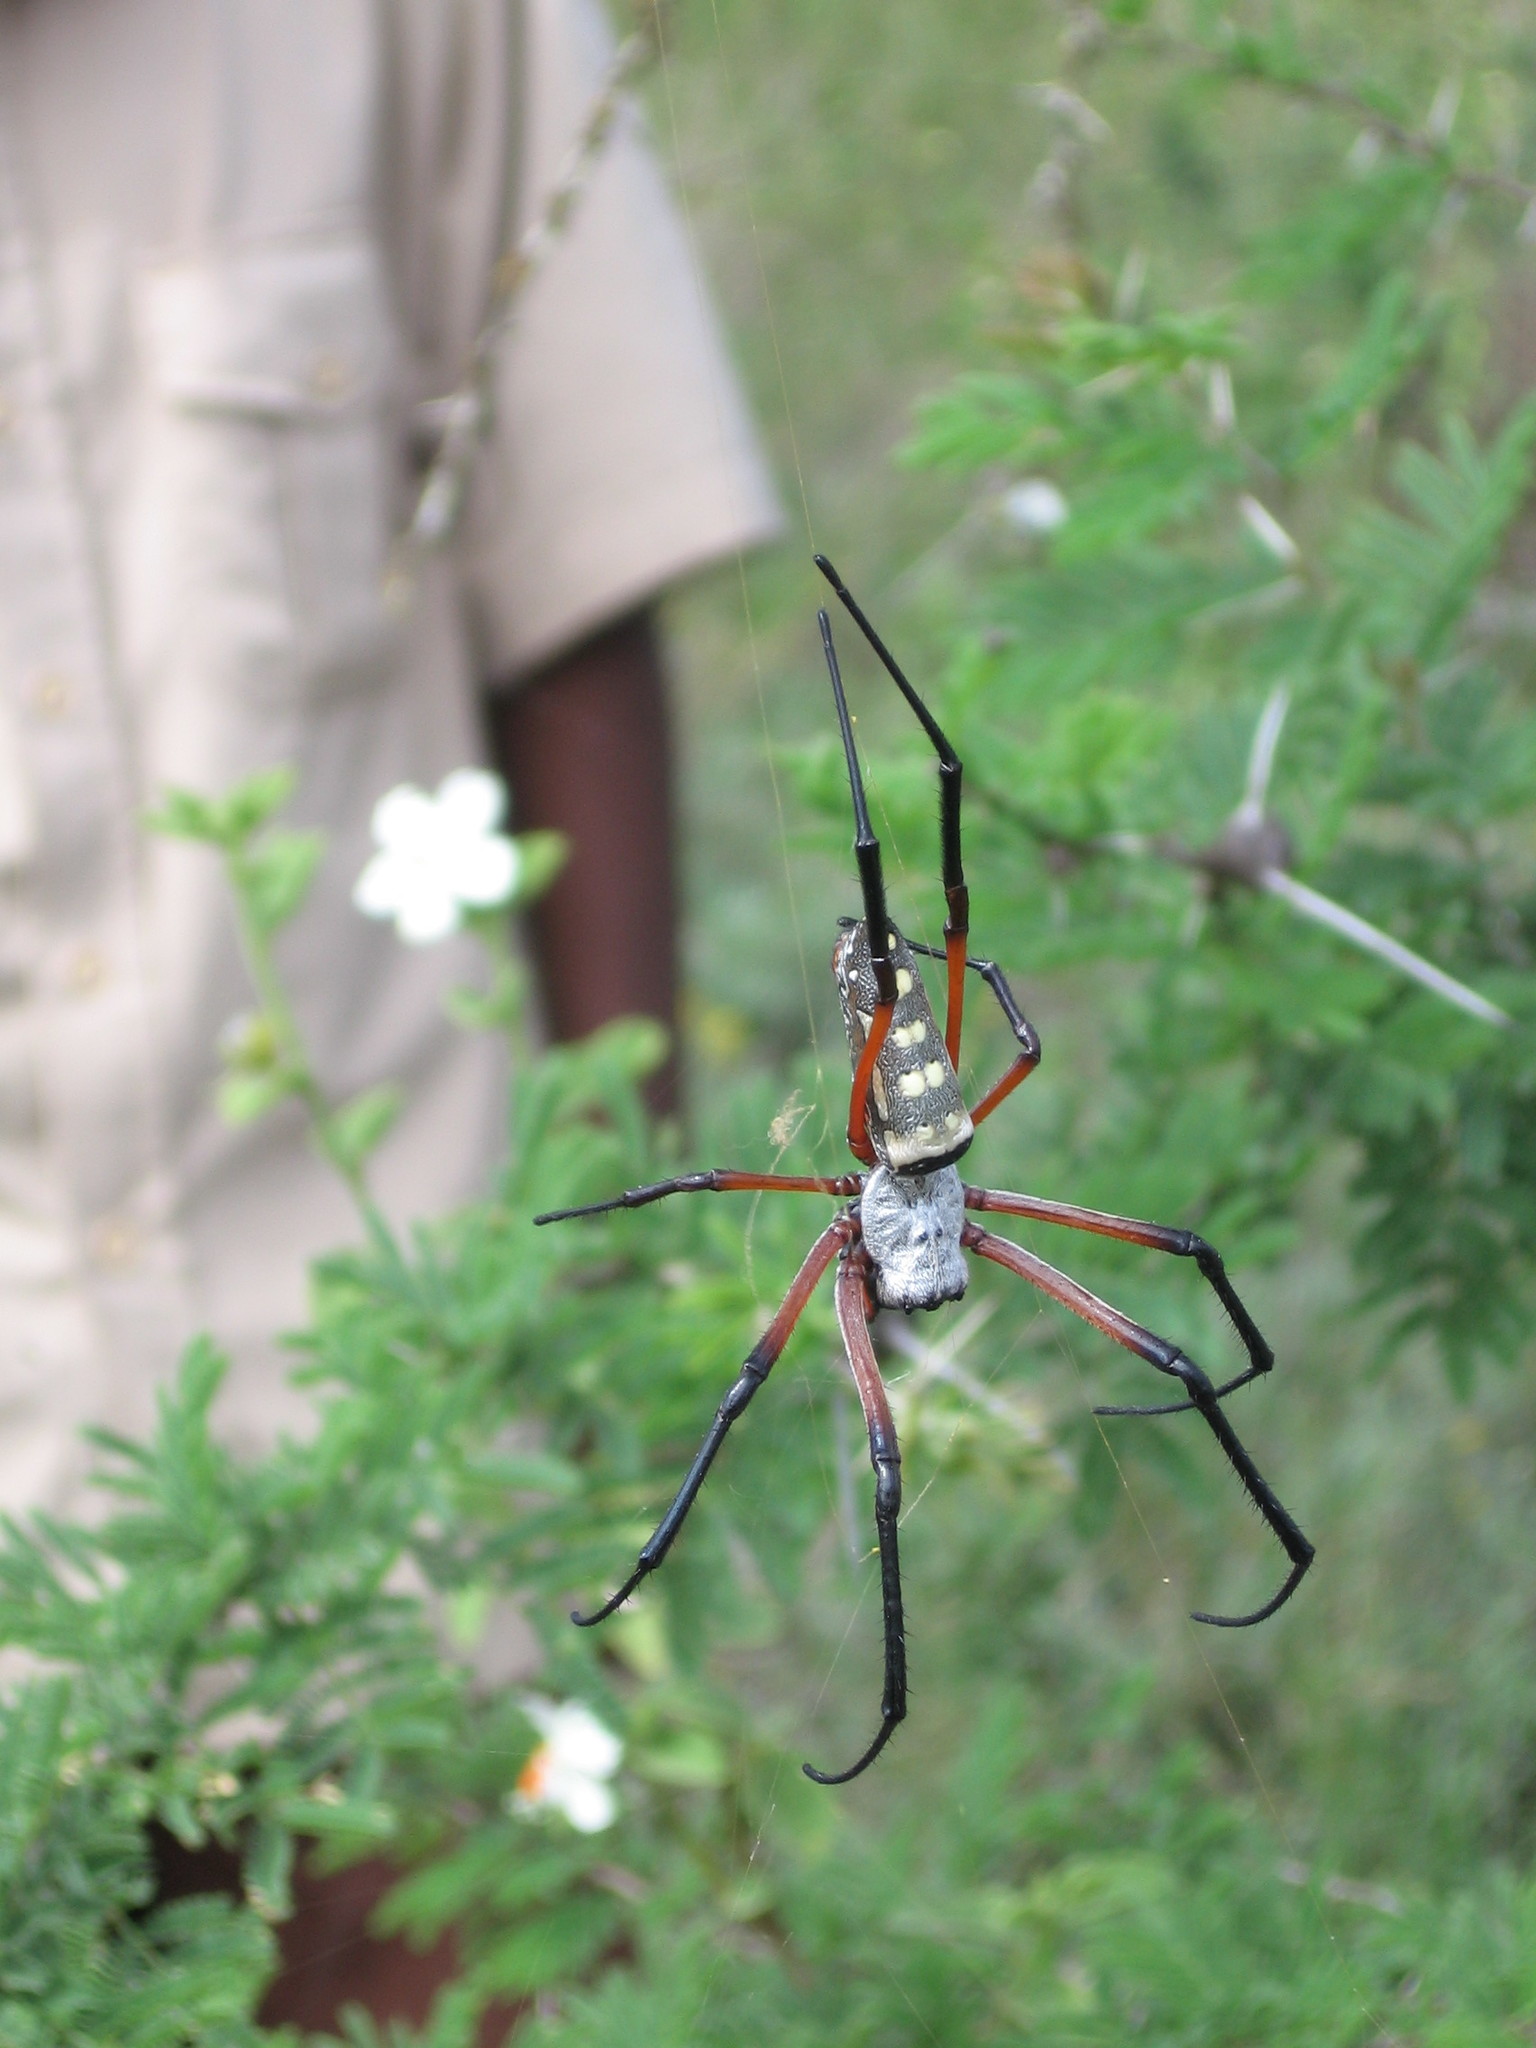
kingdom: Animalia
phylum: Arthropoda
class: Arachnida
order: Araneae
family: Araneidae
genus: Trichonephila
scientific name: Trichonephila sumptuosa
